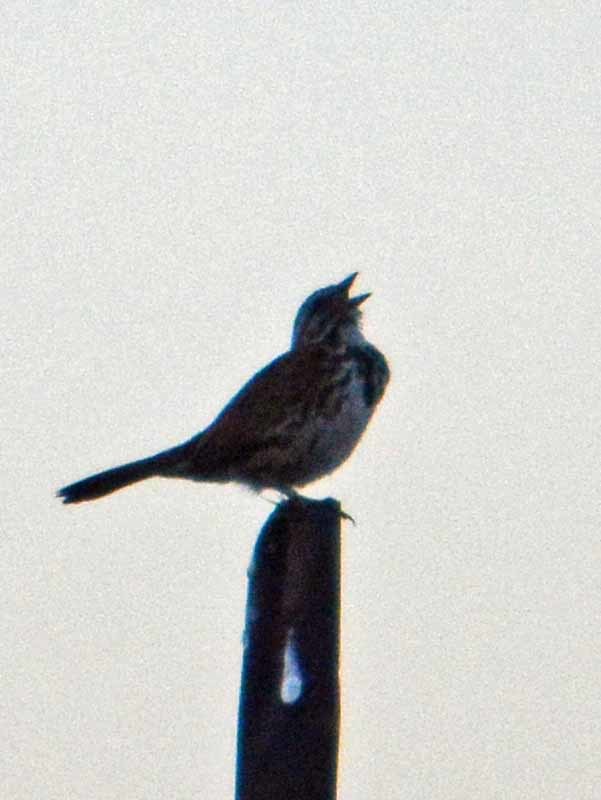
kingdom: Animalia
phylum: Chordata
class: Aves
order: Passeriformes
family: Passerellidae
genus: Melospiza
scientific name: Melospiza melodia
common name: Song sparrow
